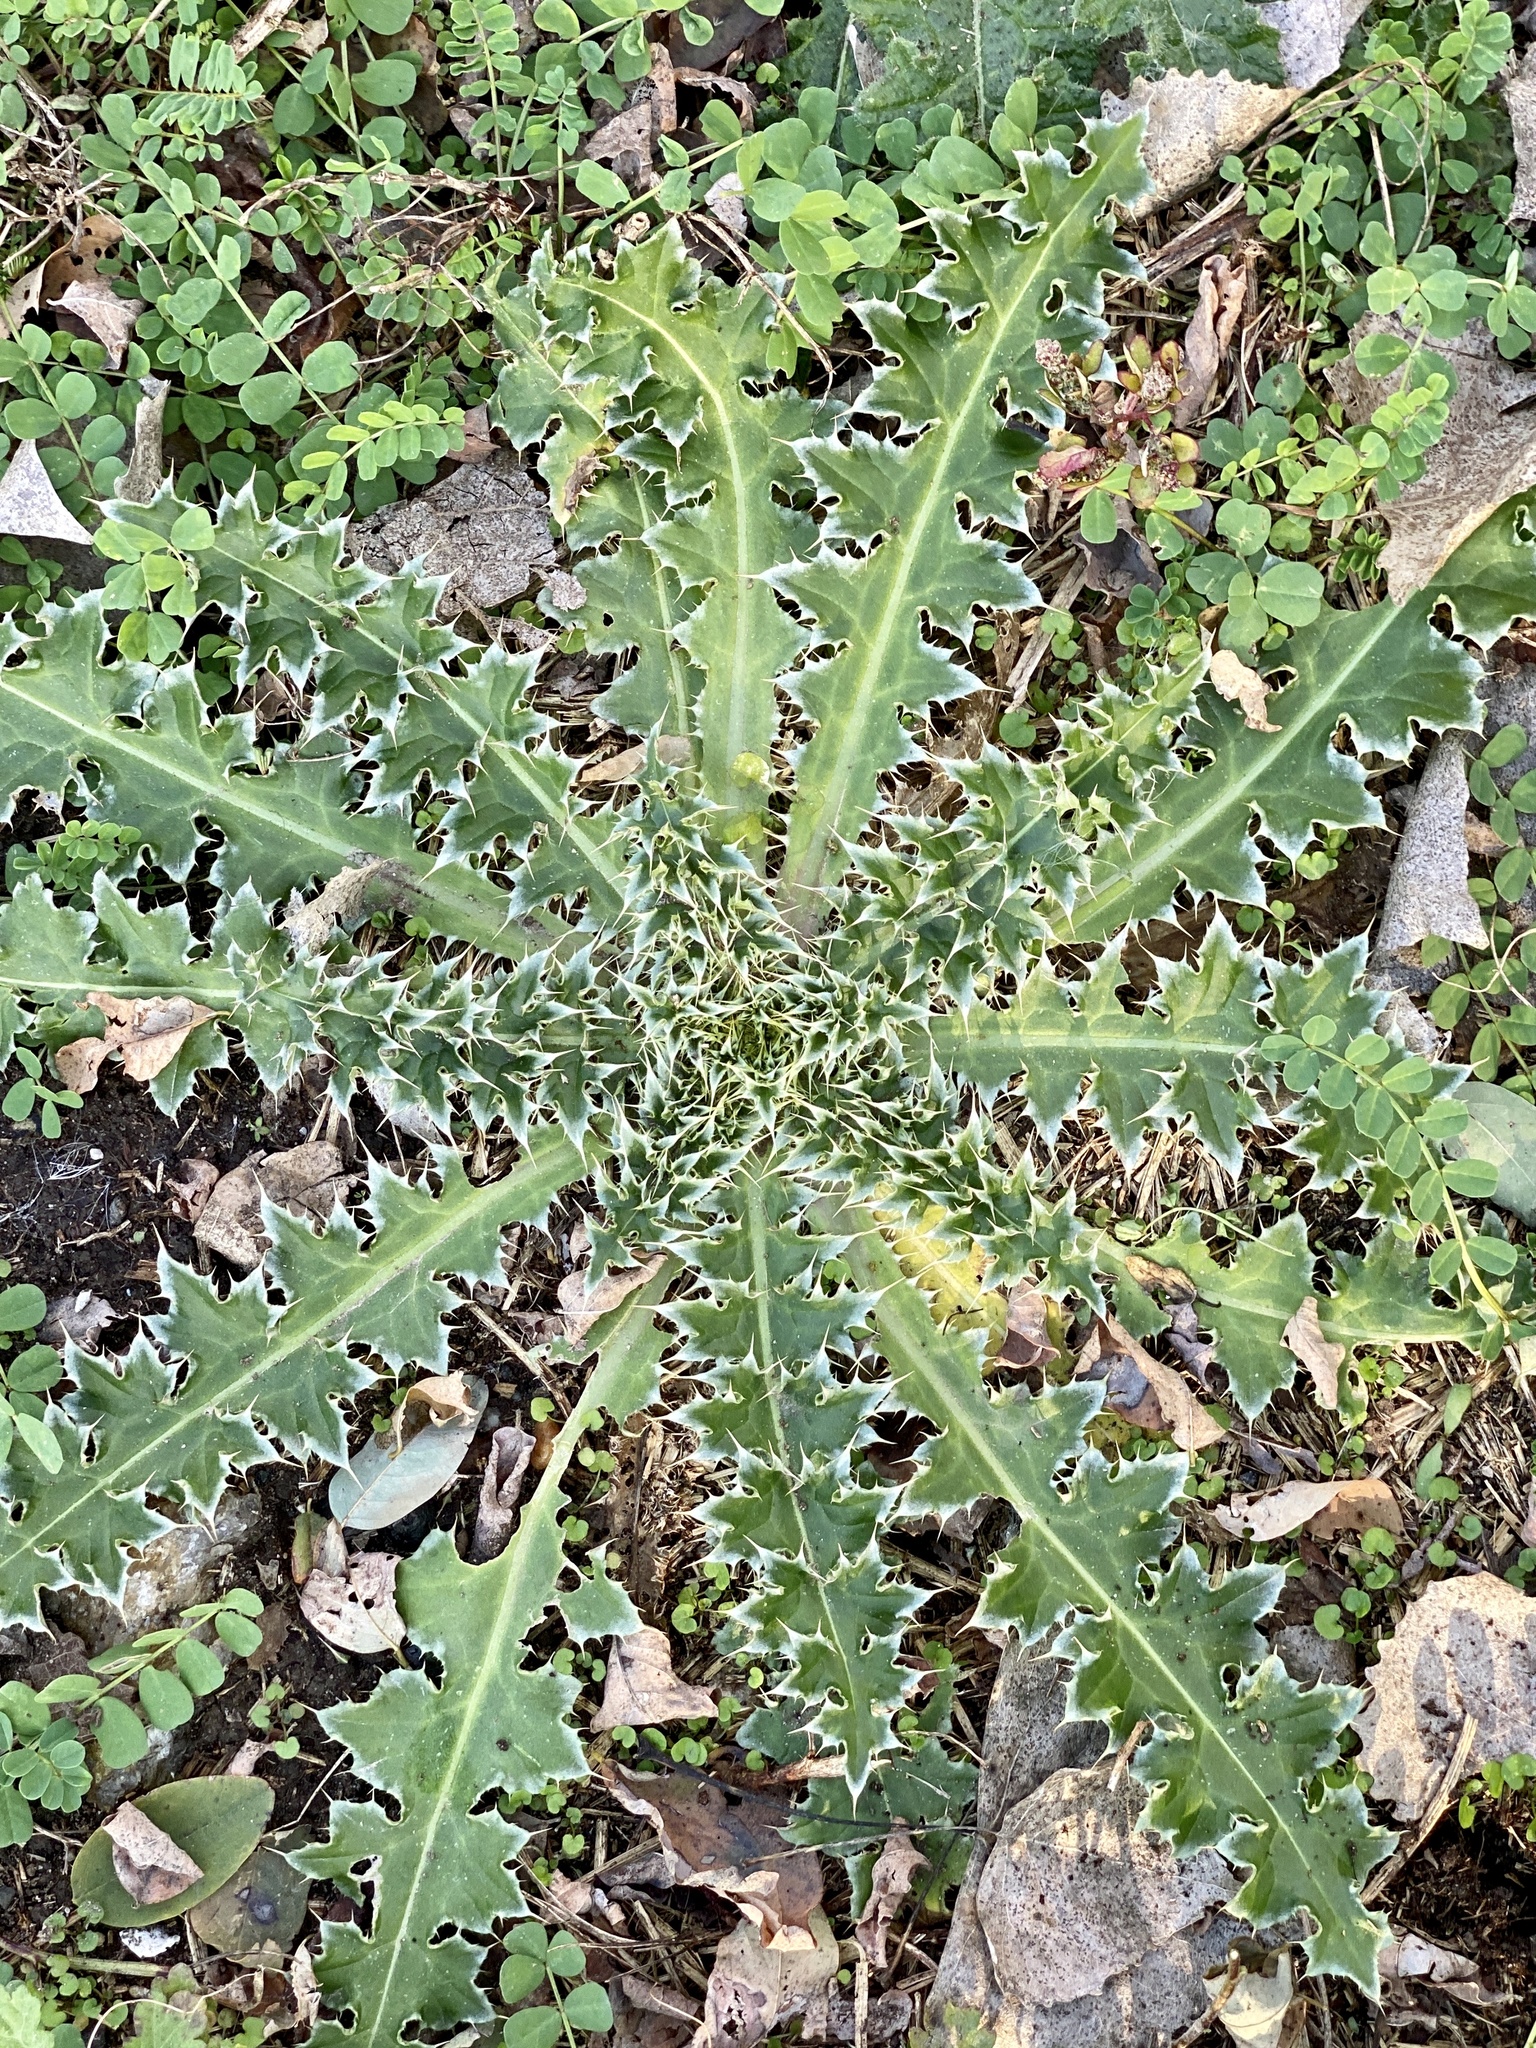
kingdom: Plantae
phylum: Tracheophyta
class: Magnoliopsida
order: Asterales
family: Asteraceae
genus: Carduus
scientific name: Carduus nutans
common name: Musk thistle
